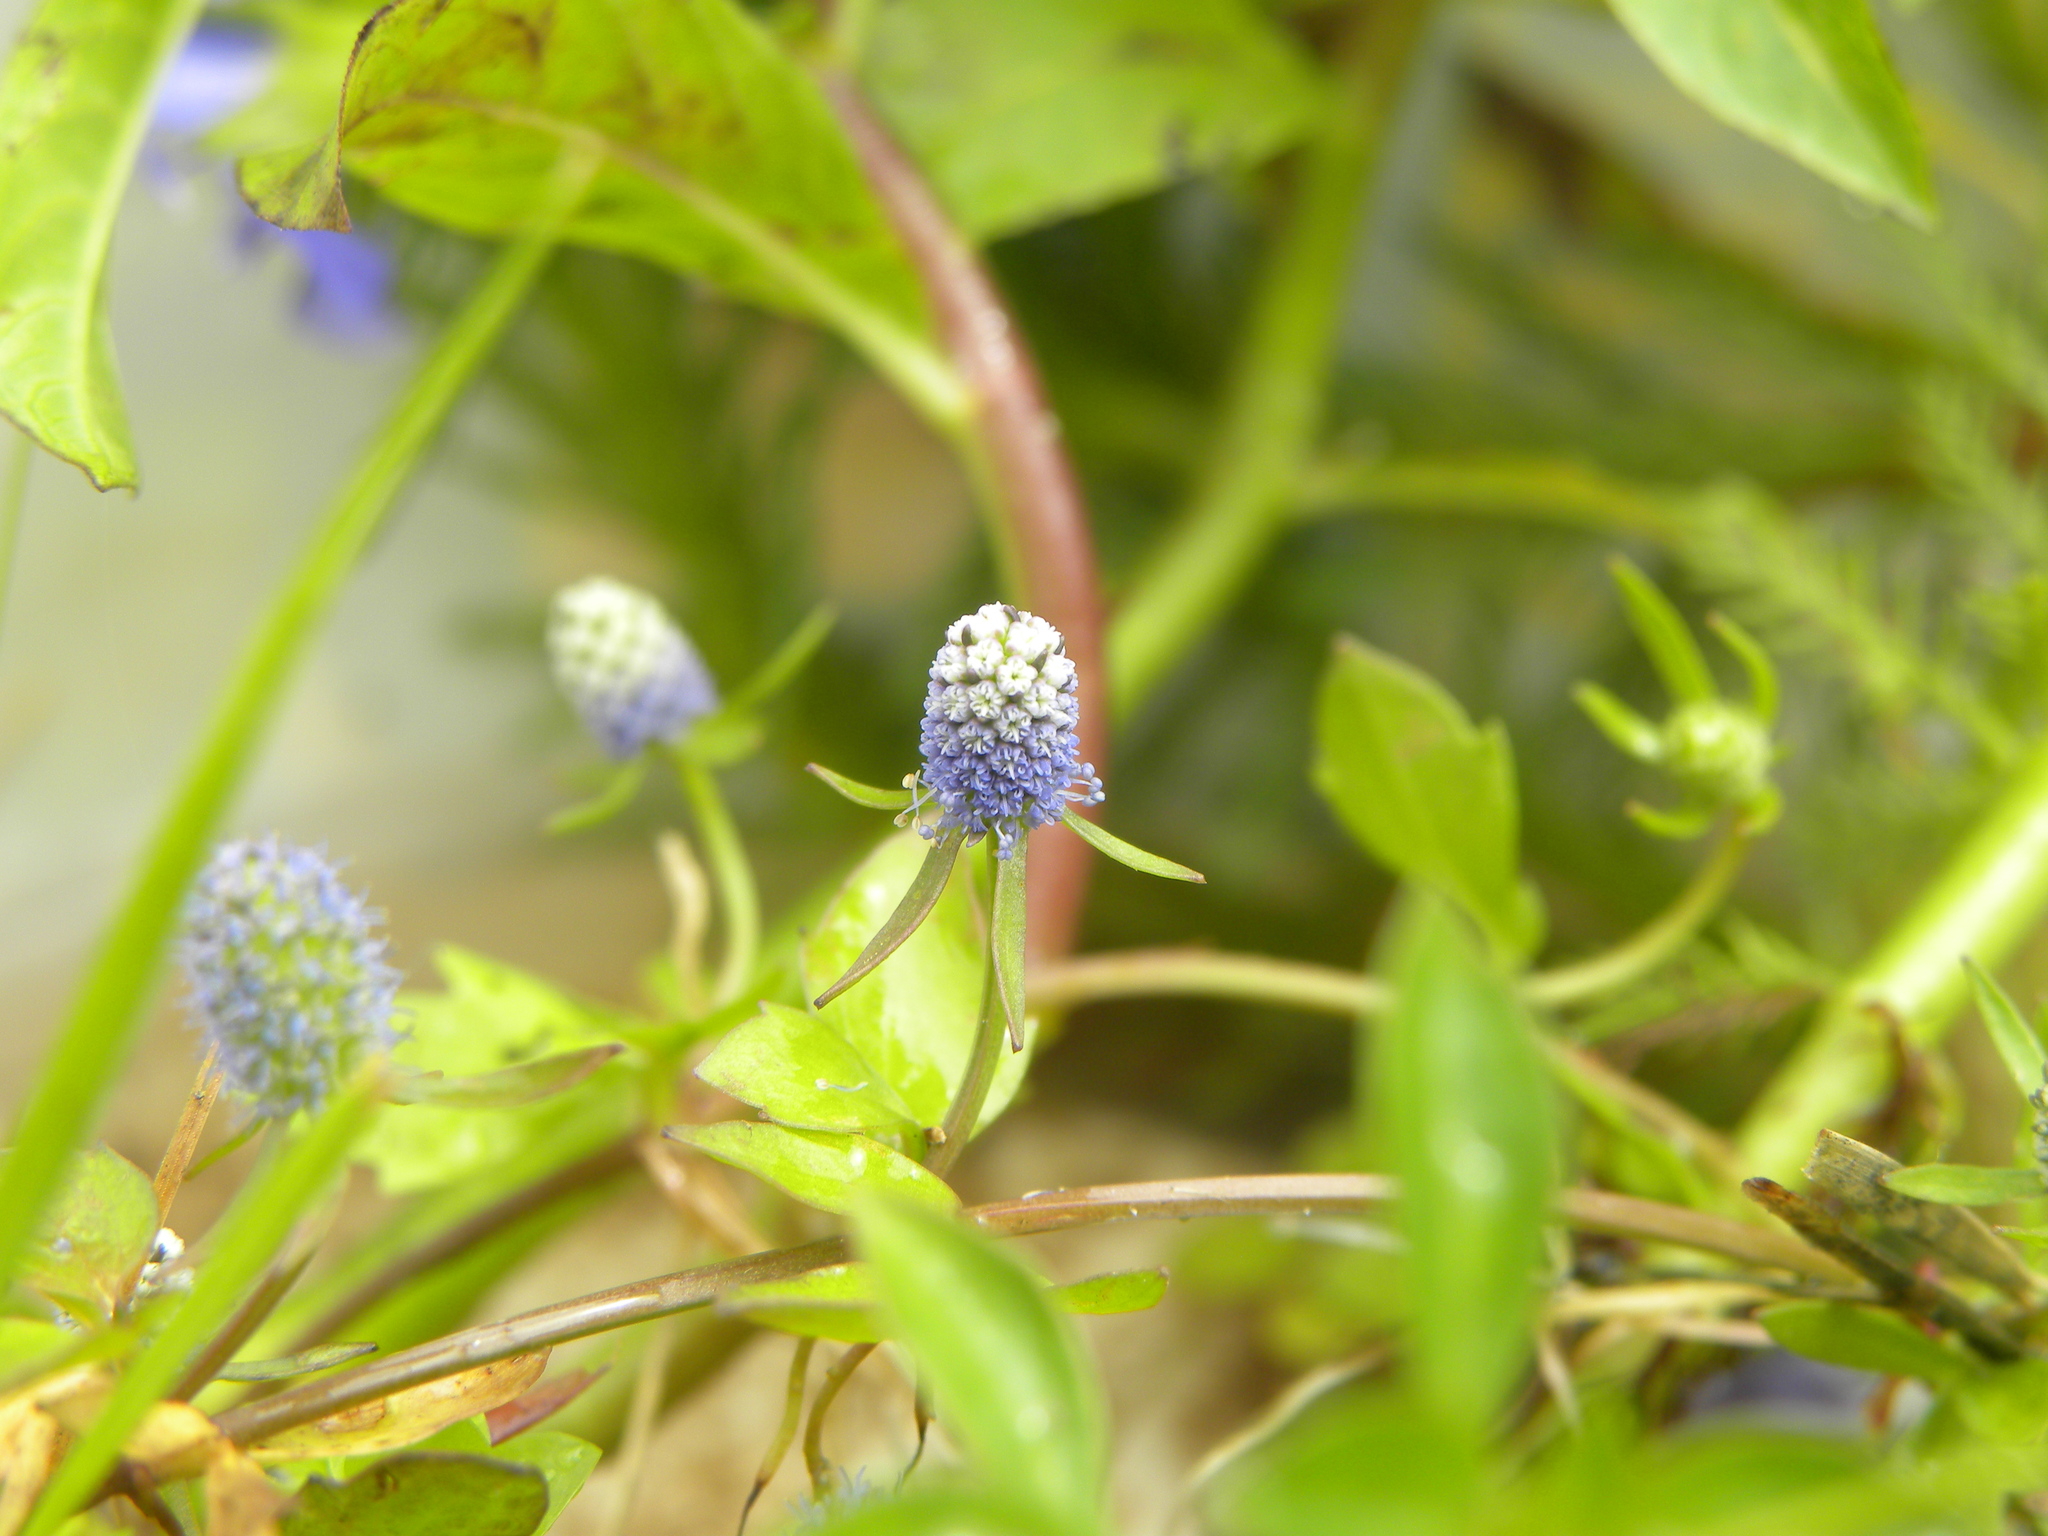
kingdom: Plantae
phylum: Tracheophyta
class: Magnoliopsida
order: Apiales
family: Apiaceae
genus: Eryngium
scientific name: Eryngium prostratum
